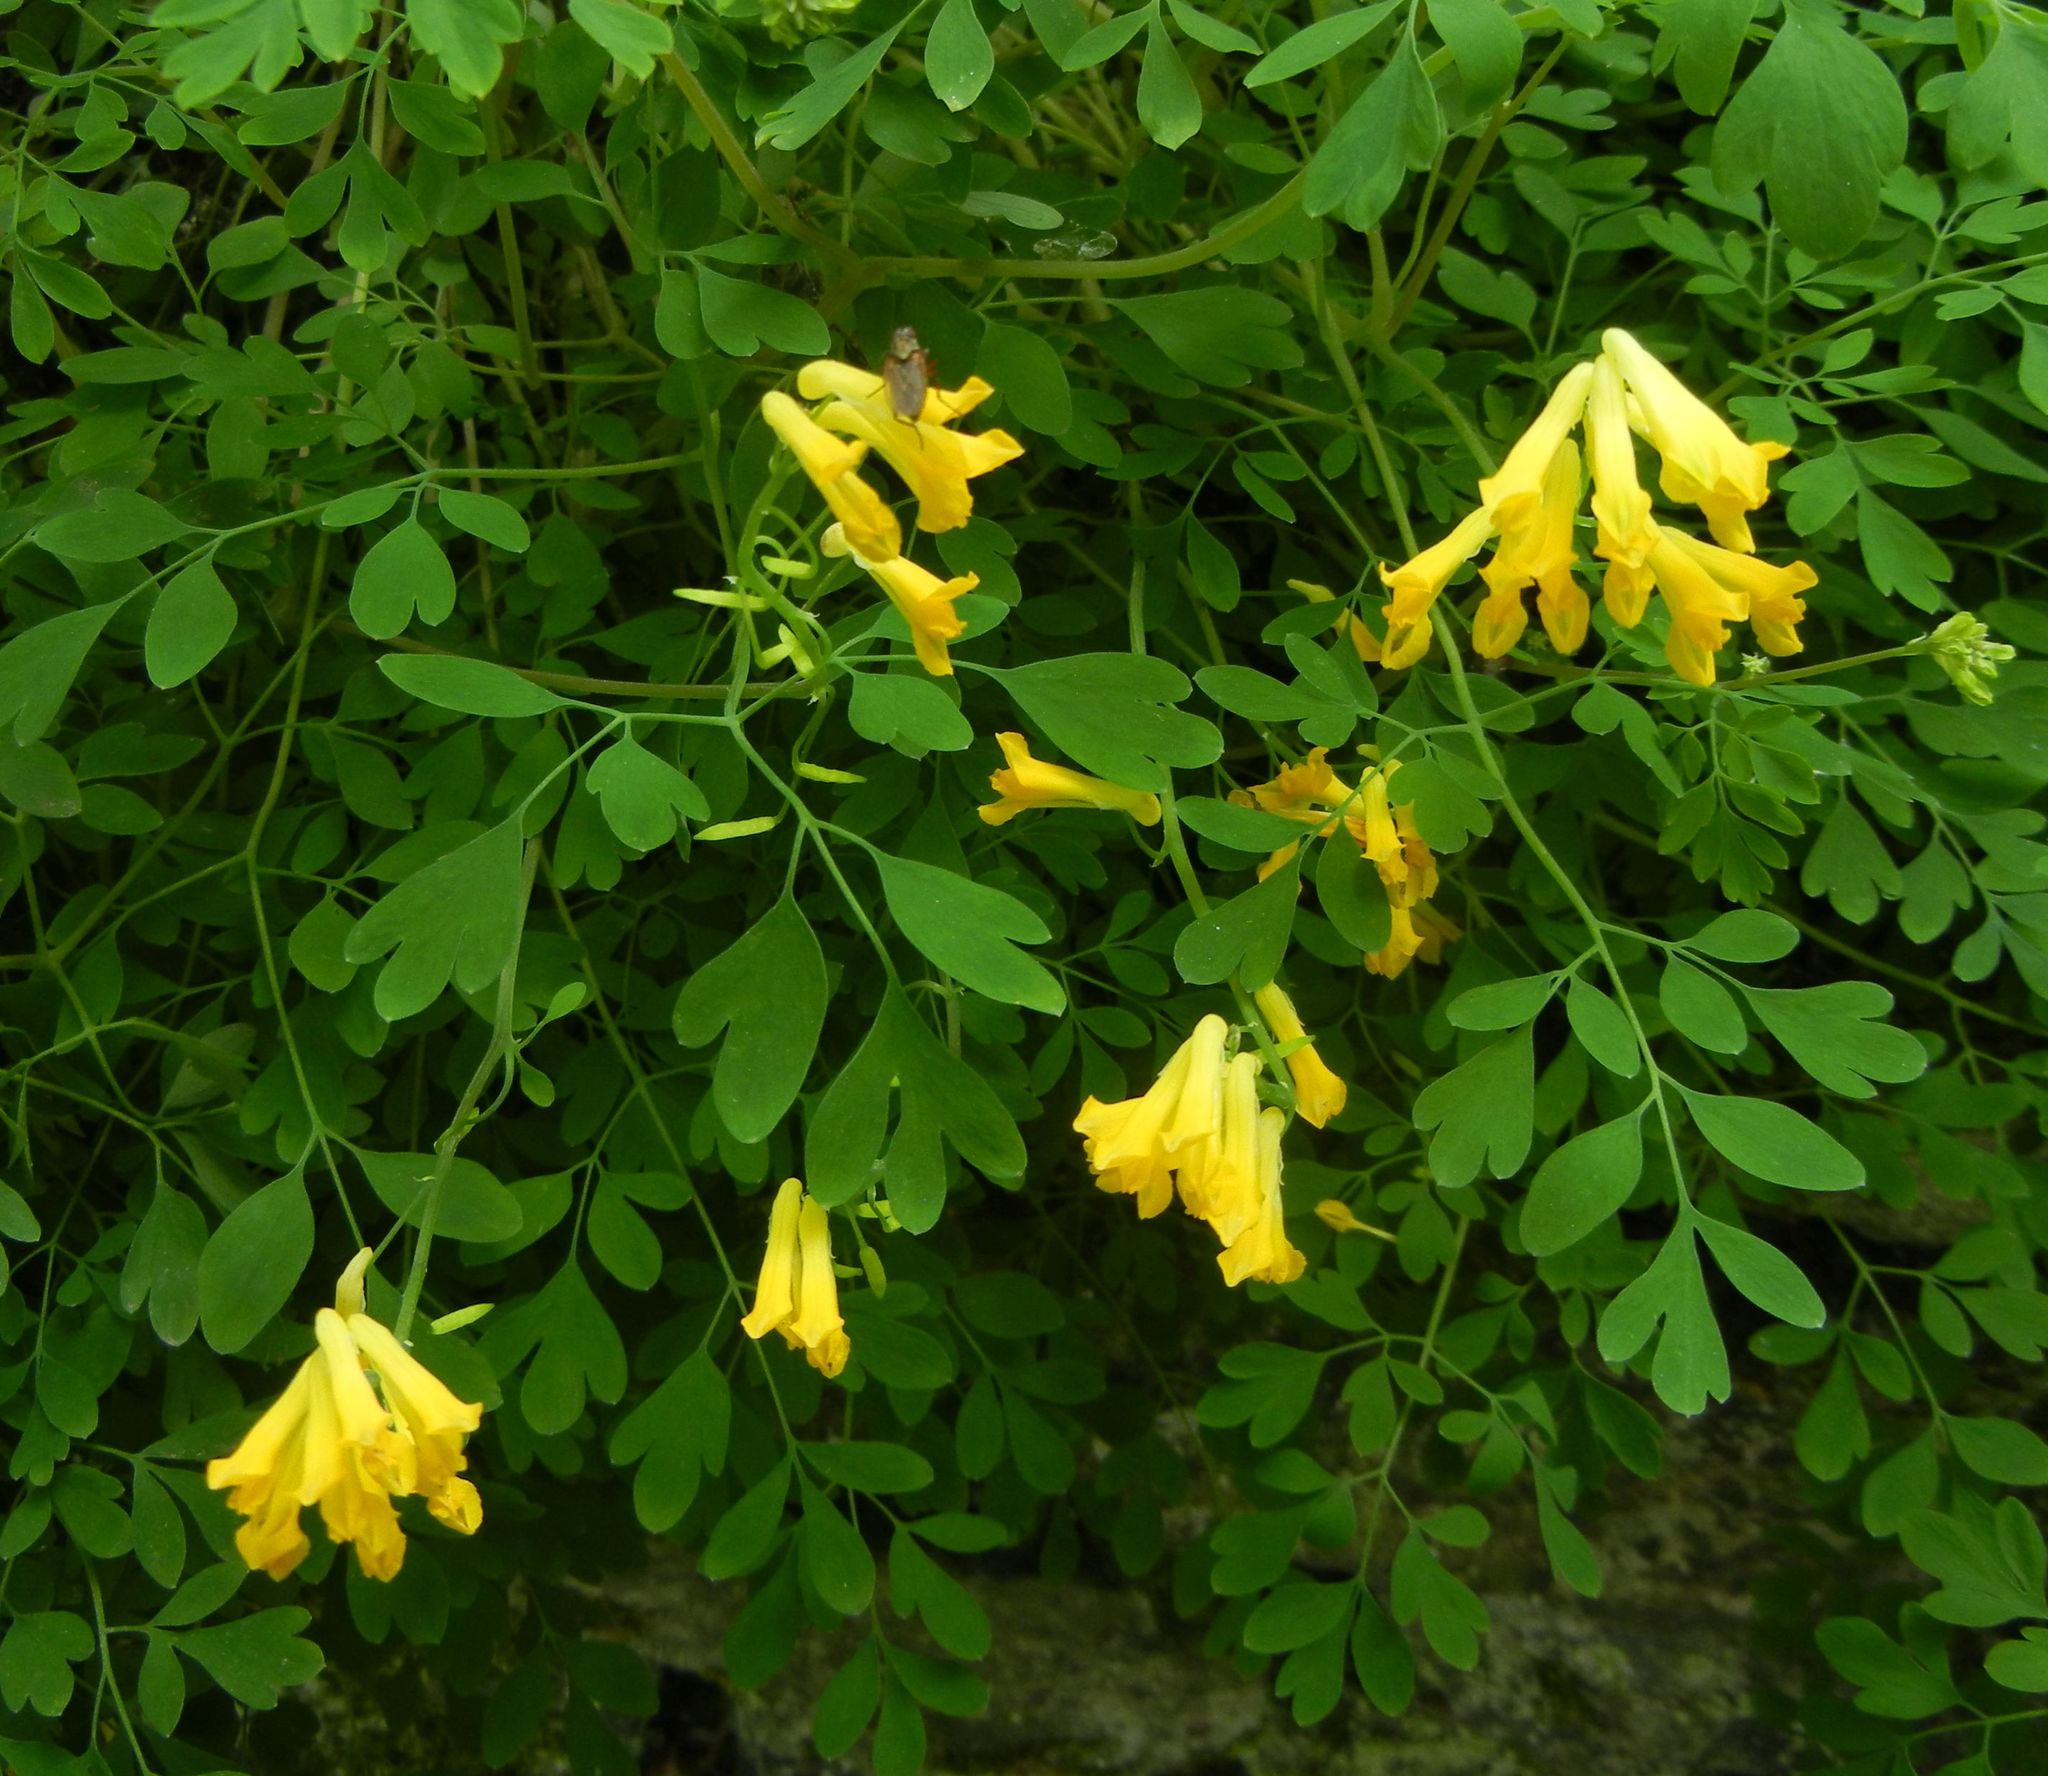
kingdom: Plantae
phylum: Tracheophyta
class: Magnoliopsida
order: Ranunculales
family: Papaveraceae
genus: Pseudofumaria
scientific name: Pseudofumaria lutea
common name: Yellow corydalis
